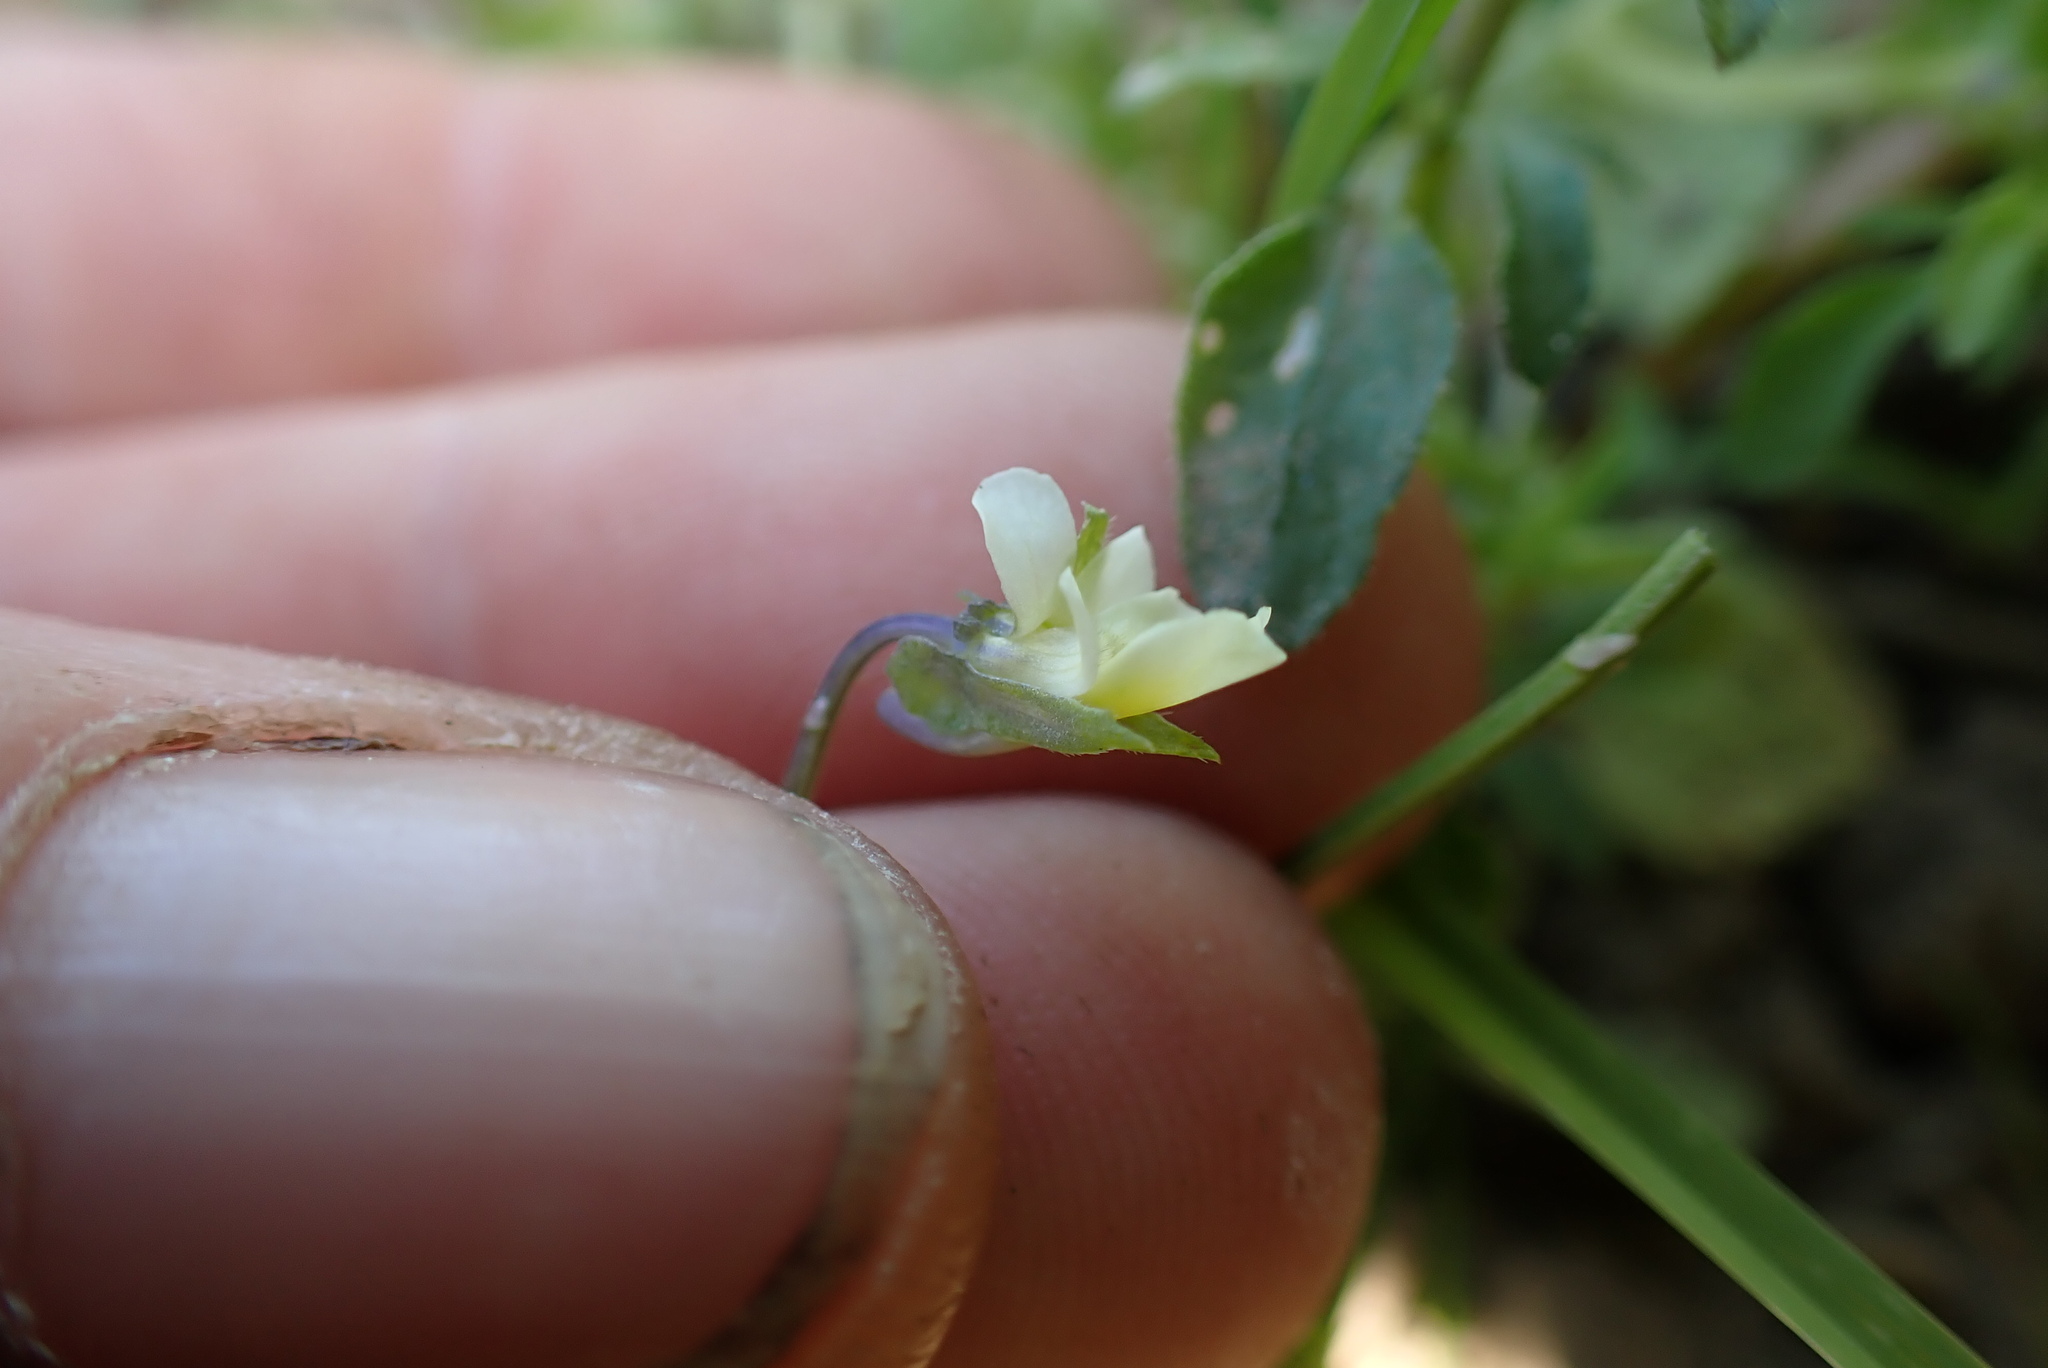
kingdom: Plantae
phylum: Tracheophyta
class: Magnoliopsida
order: Malpighiales
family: Violaceae
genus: Viola
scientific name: Viola arvensis
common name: Field pansy
